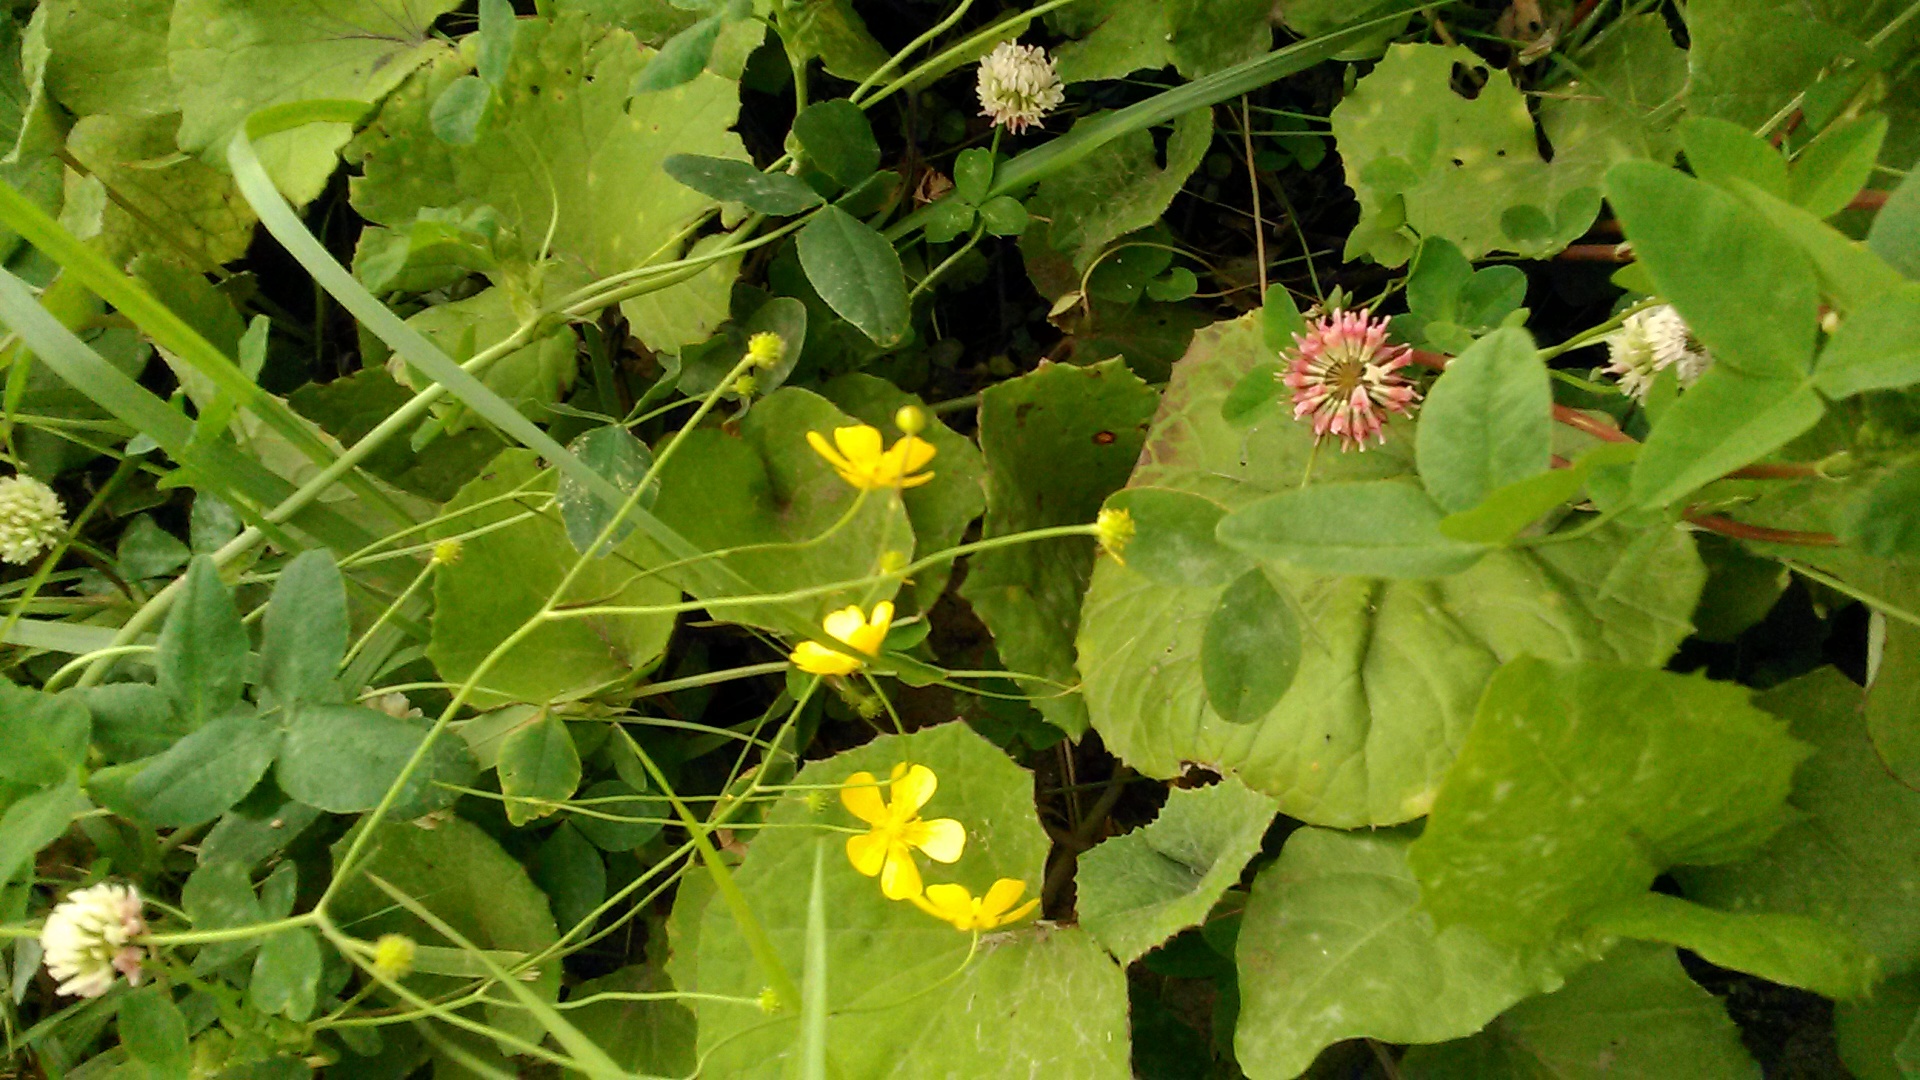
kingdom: Plantae
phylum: Tracheophyta
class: Magnoliopsida
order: Ranunculales
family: Ranunculaceae
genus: Ranunculus
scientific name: Ranunculus acris
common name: Meadow buttercup
